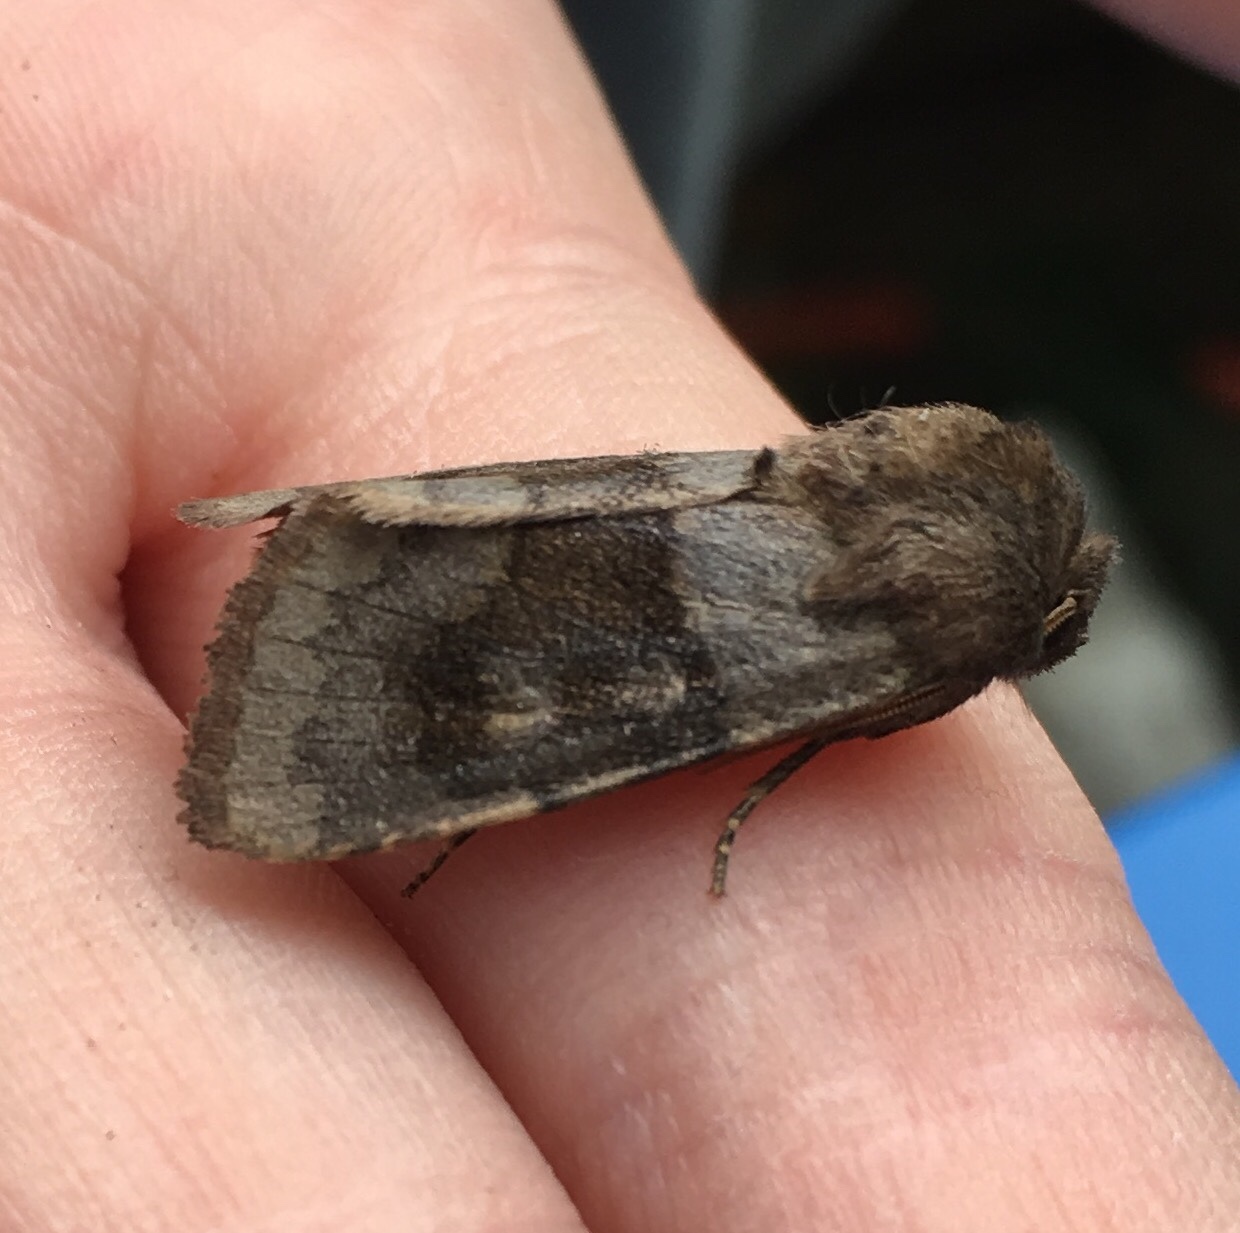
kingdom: Animalia
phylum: Arthropoda
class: Insecta
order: Lepidoptera
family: Noctuidae
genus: Nephelodes
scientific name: Nephelodes minians
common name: Bronzed cutworm
